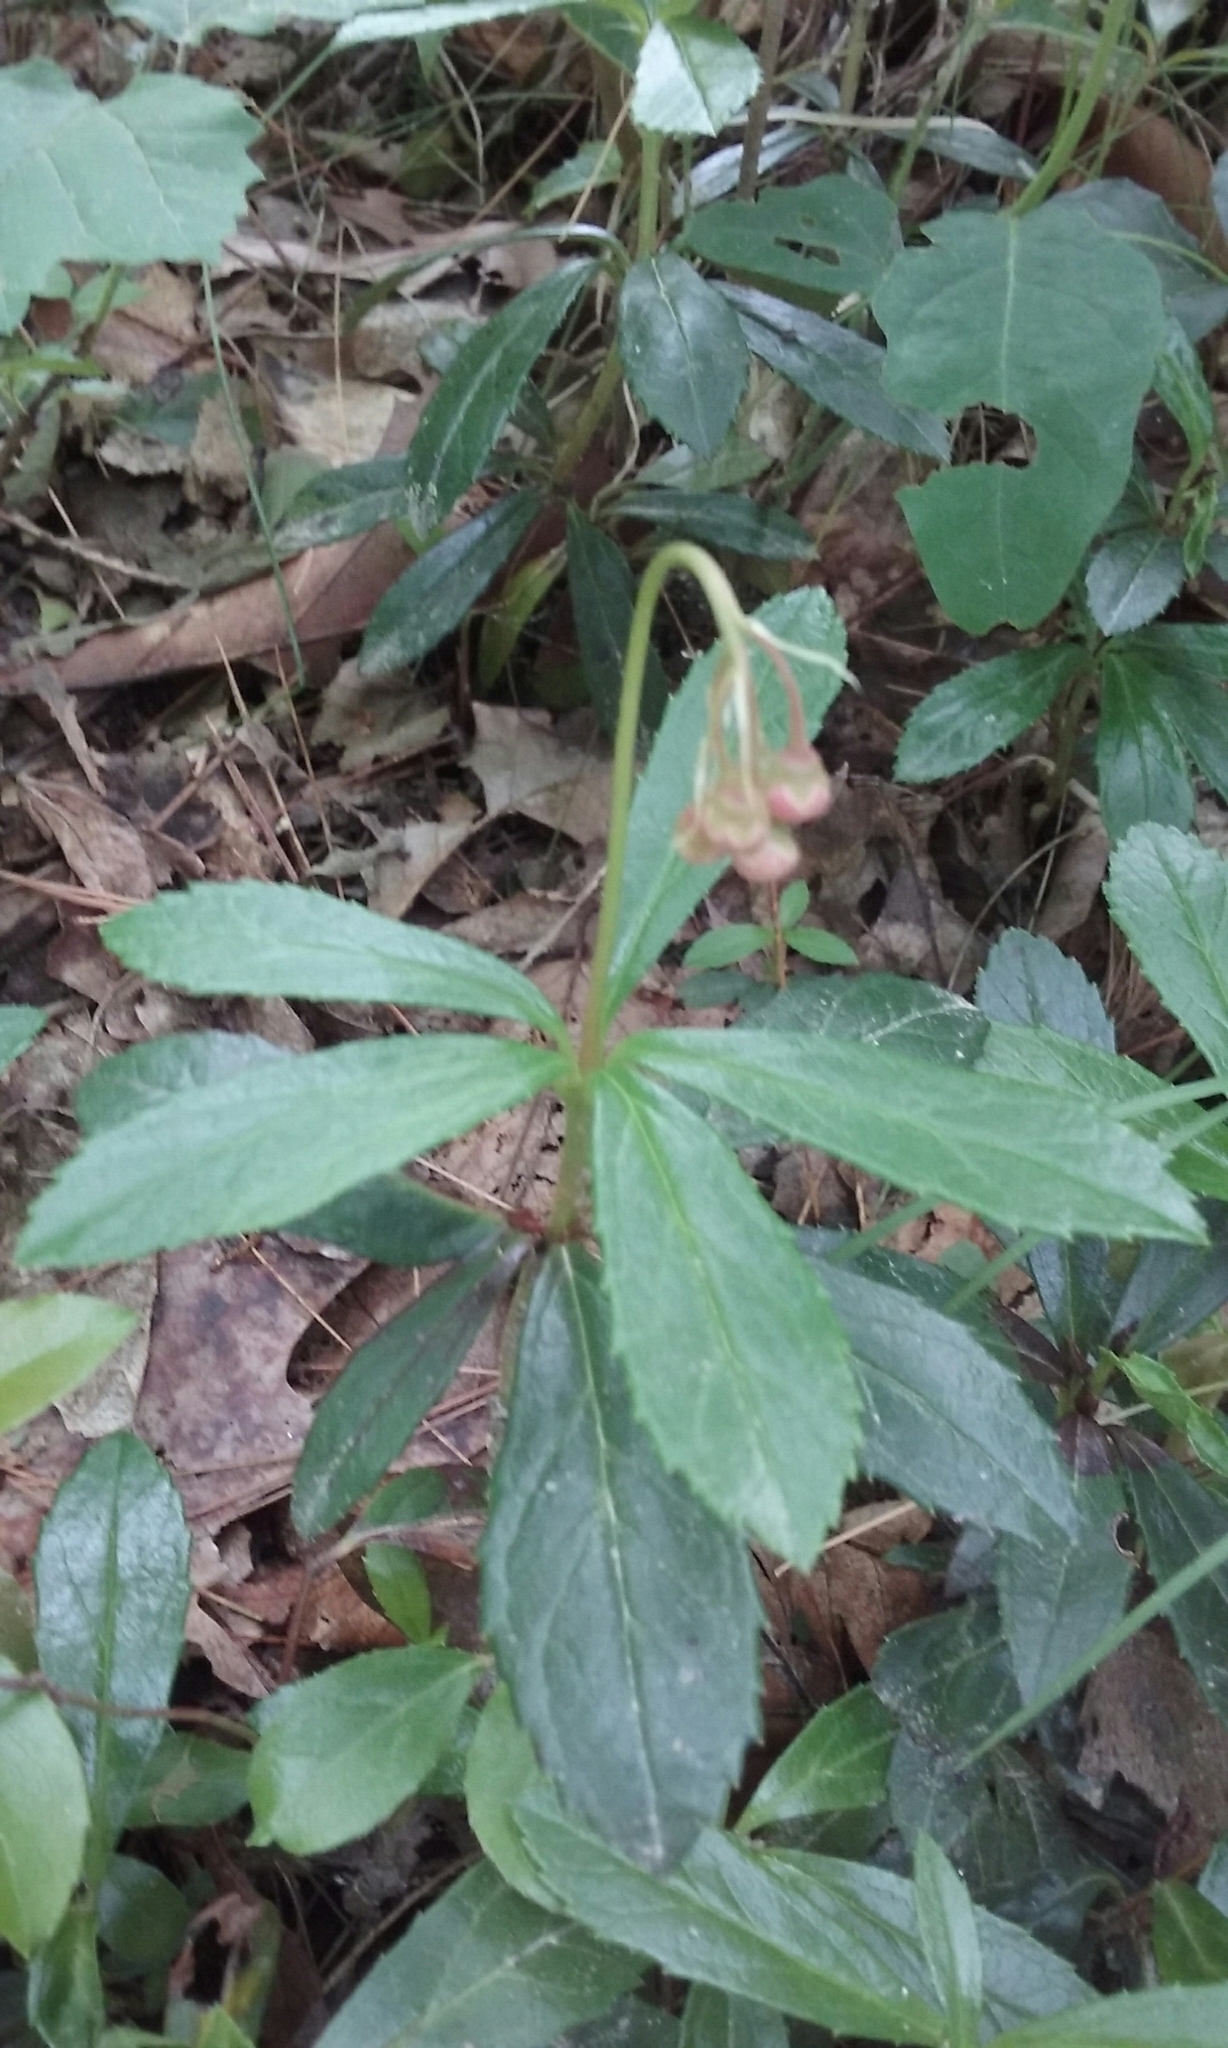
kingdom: Plantae
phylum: Tracheophyta
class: Magnoliopsida
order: Ericales
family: Ericaceae
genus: Chimaphila
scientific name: Chimaphila umbellata
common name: Pipsissewa
